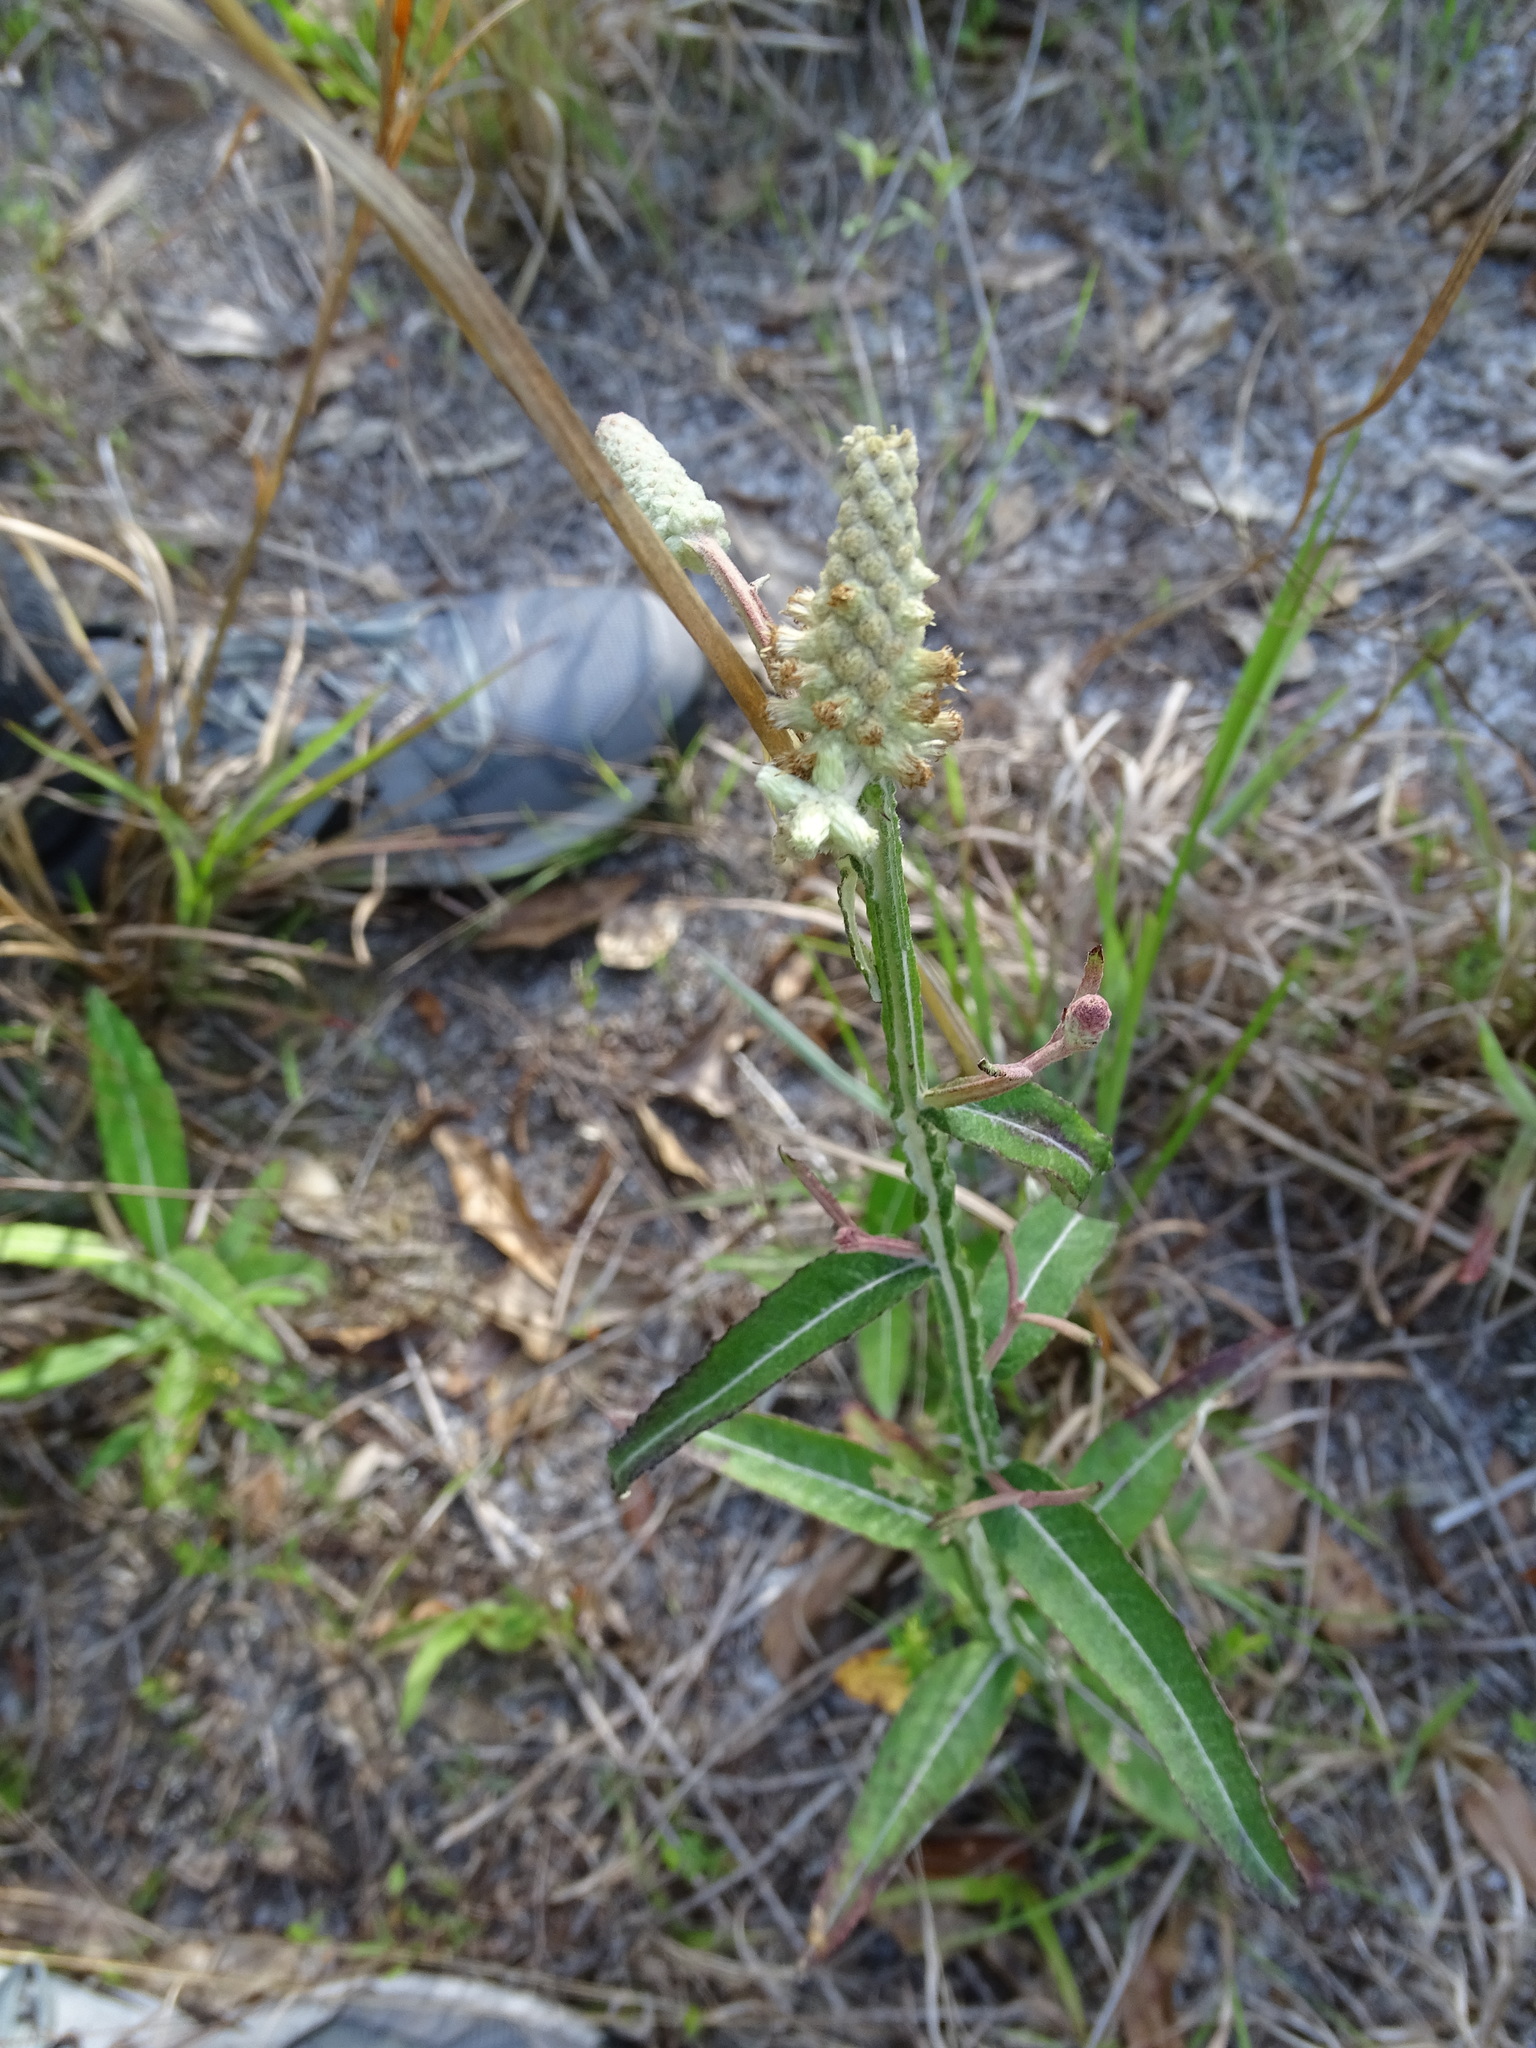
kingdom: Plantae
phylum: Tracheophyta
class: Magnoliopsida
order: Asterales
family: Asteraceae
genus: Pterocaulon
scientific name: Pterocaulon pycnostachyum
